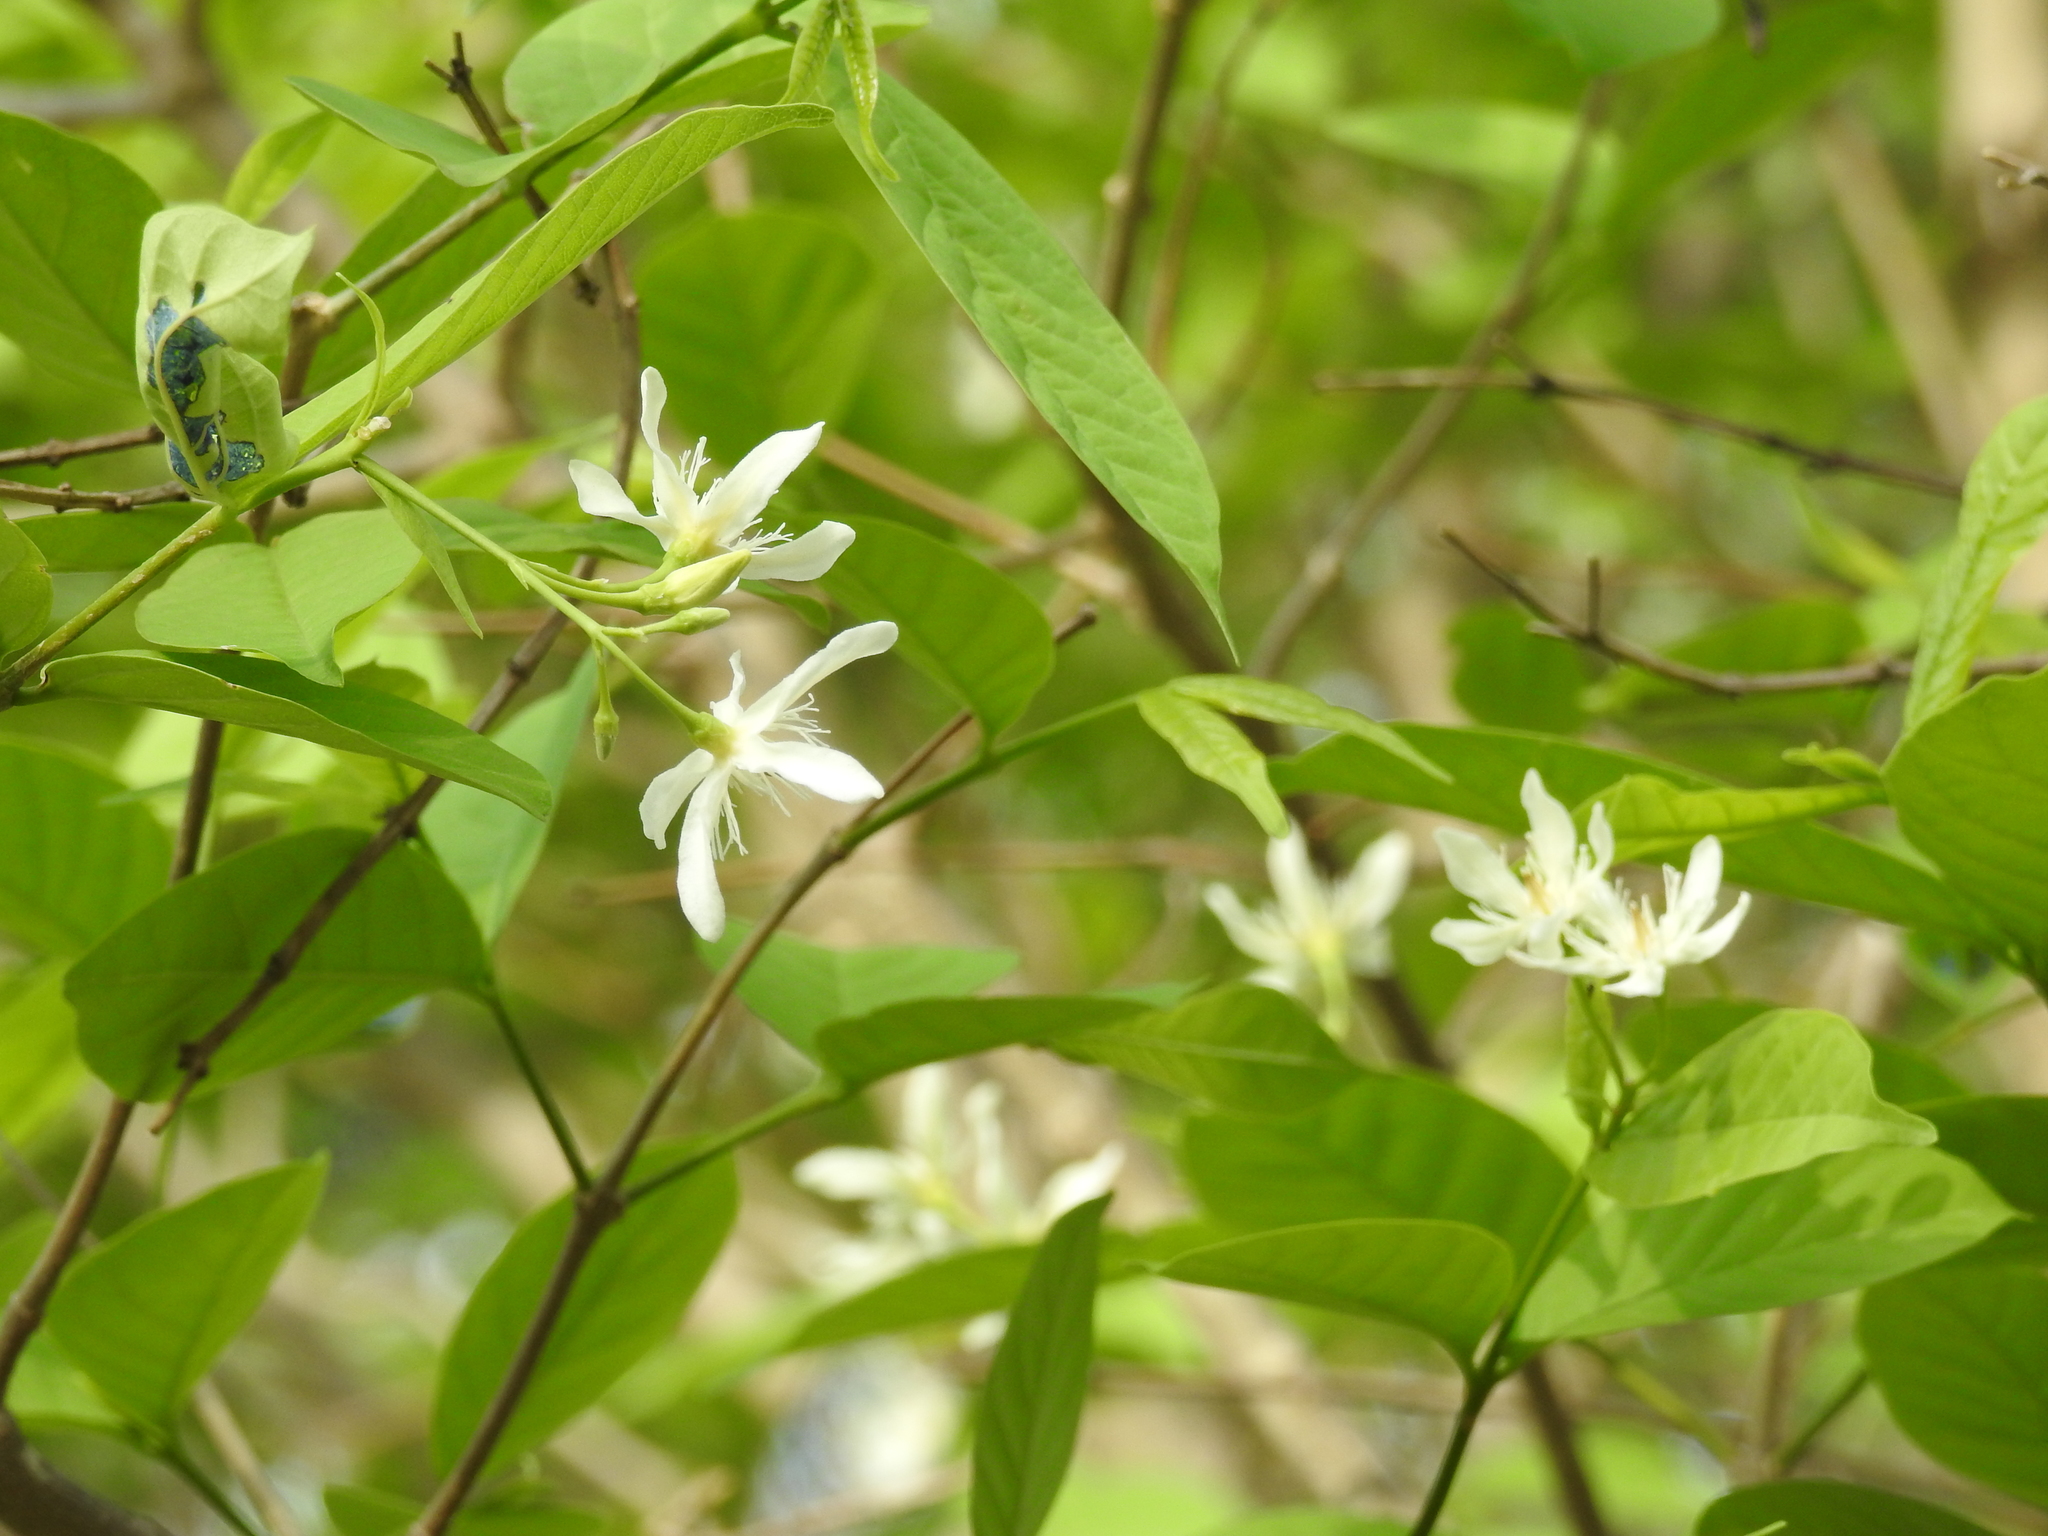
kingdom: Plantae
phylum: Tracheophyta
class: Magnoliopsida
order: Gentianales
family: Apocynaceae
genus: Wrightia
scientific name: Wrightia tinctoria
